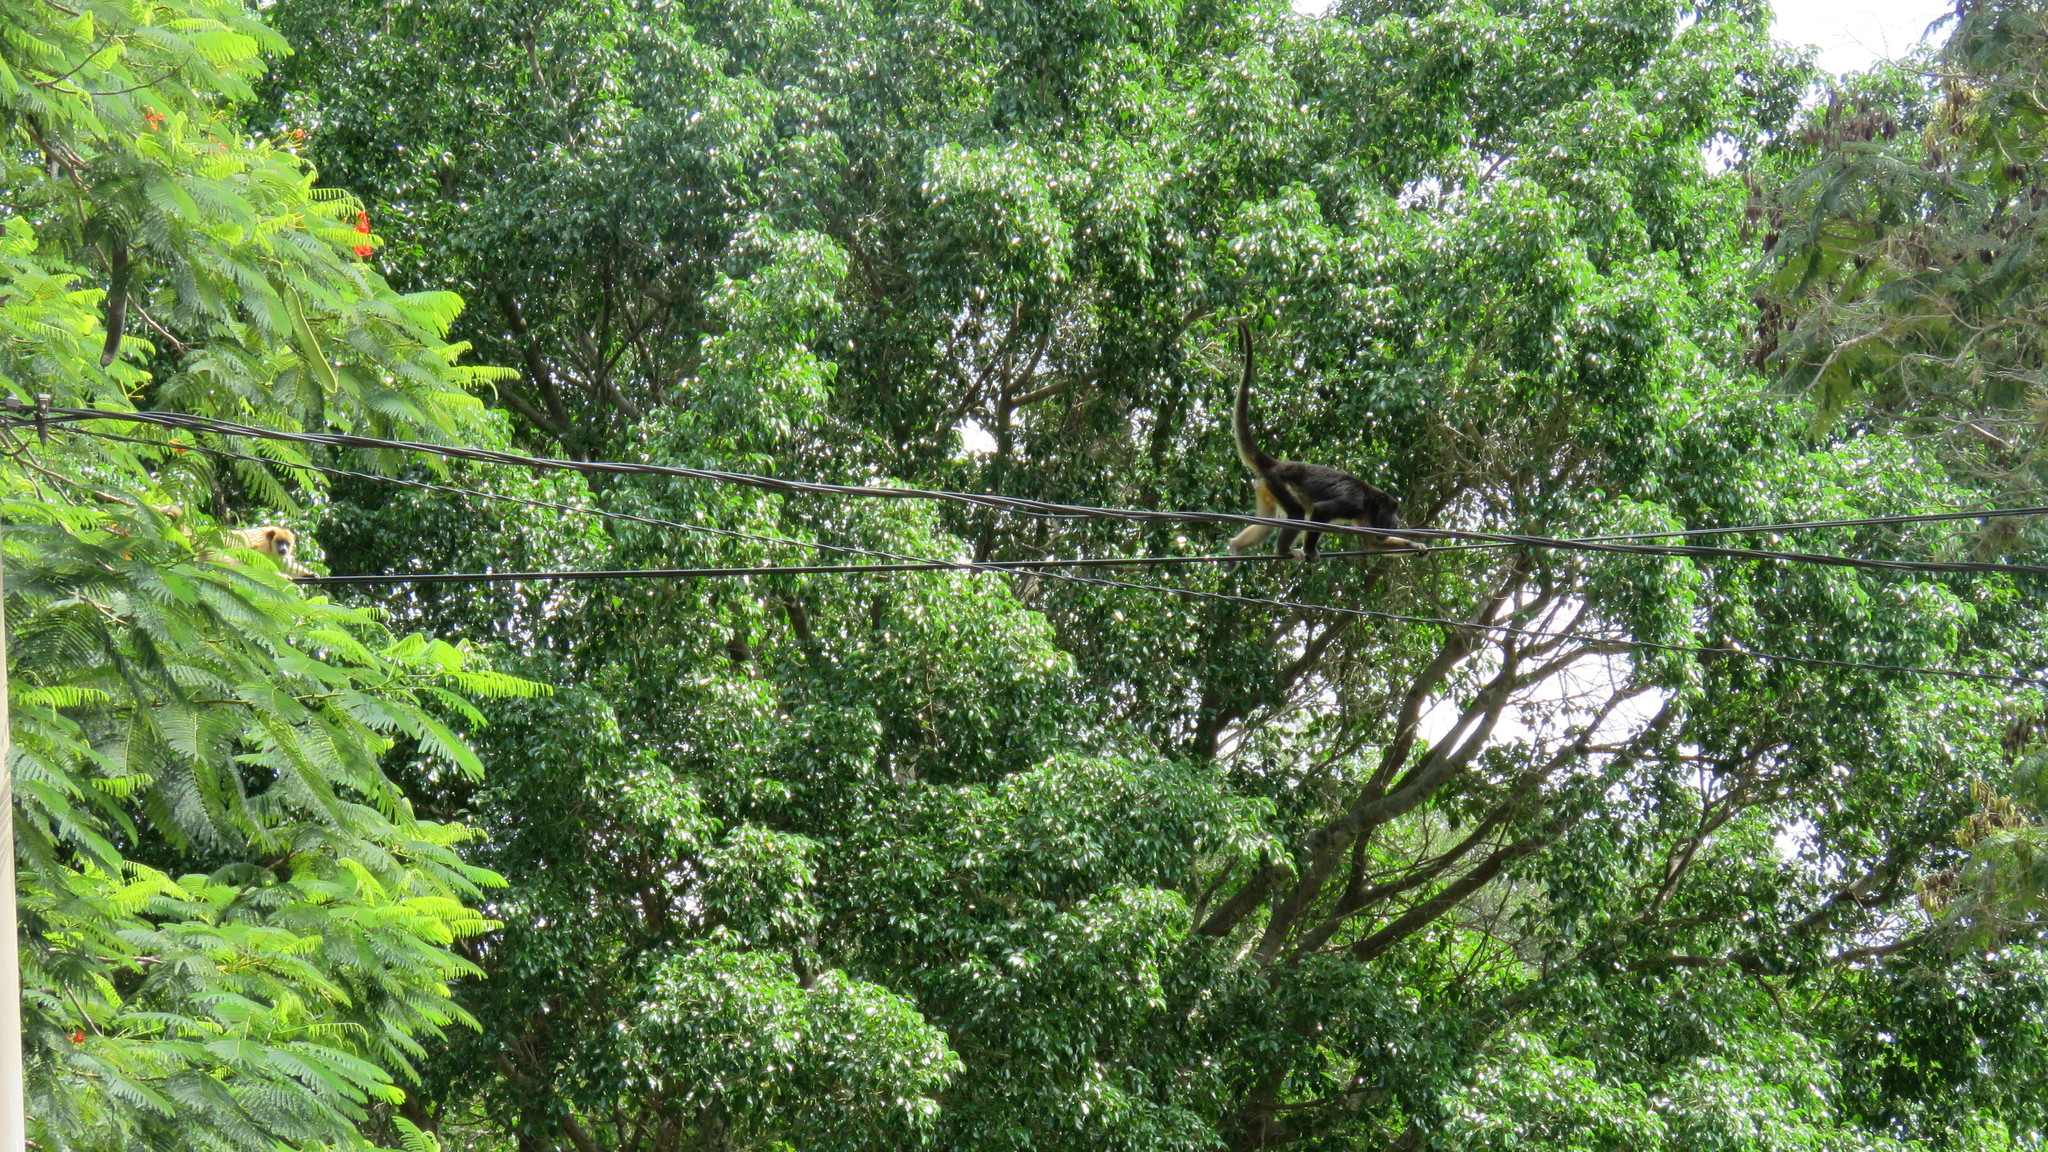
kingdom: Animalia
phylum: Chordata
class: Mammalia
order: Primates
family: Atelidae
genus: Alouatta
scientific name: Alouatta caraya
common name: Black howler
